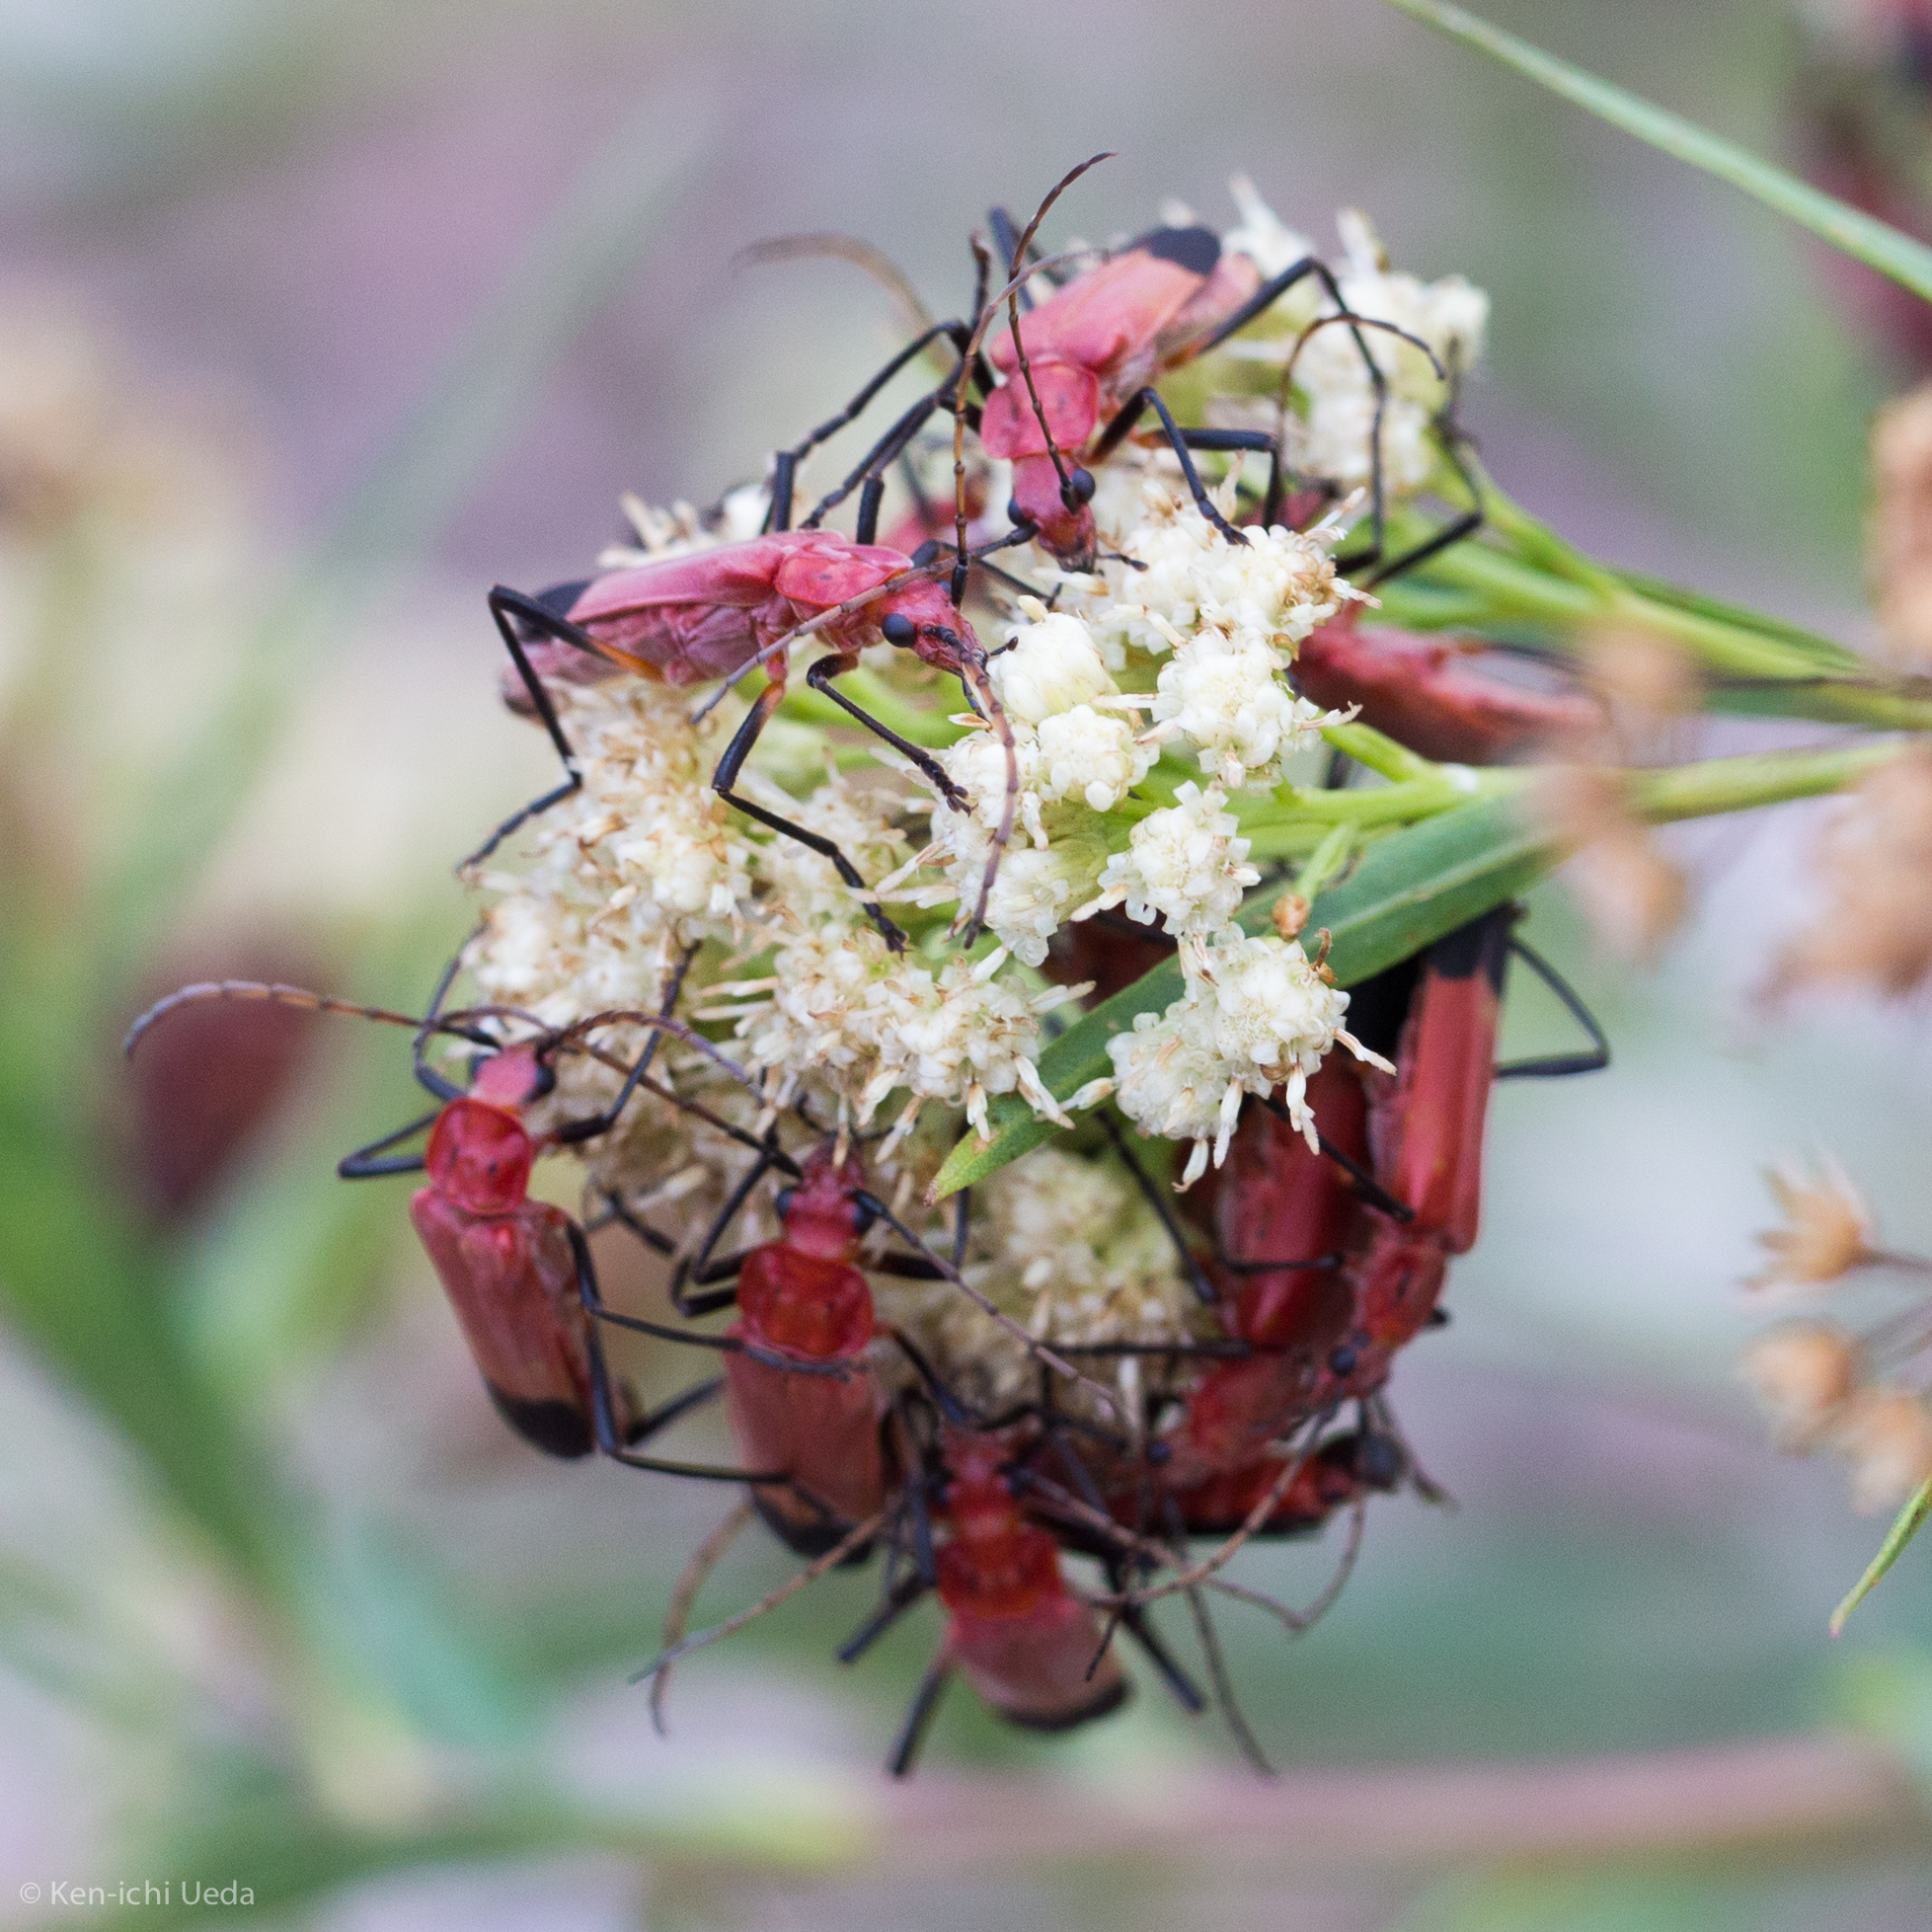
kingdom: Animalia
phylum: Arthropoda
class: Insecta
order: Coleoptera
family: Cantharidae
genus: Chauliognathus
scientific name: Chauliognathus lecontei
